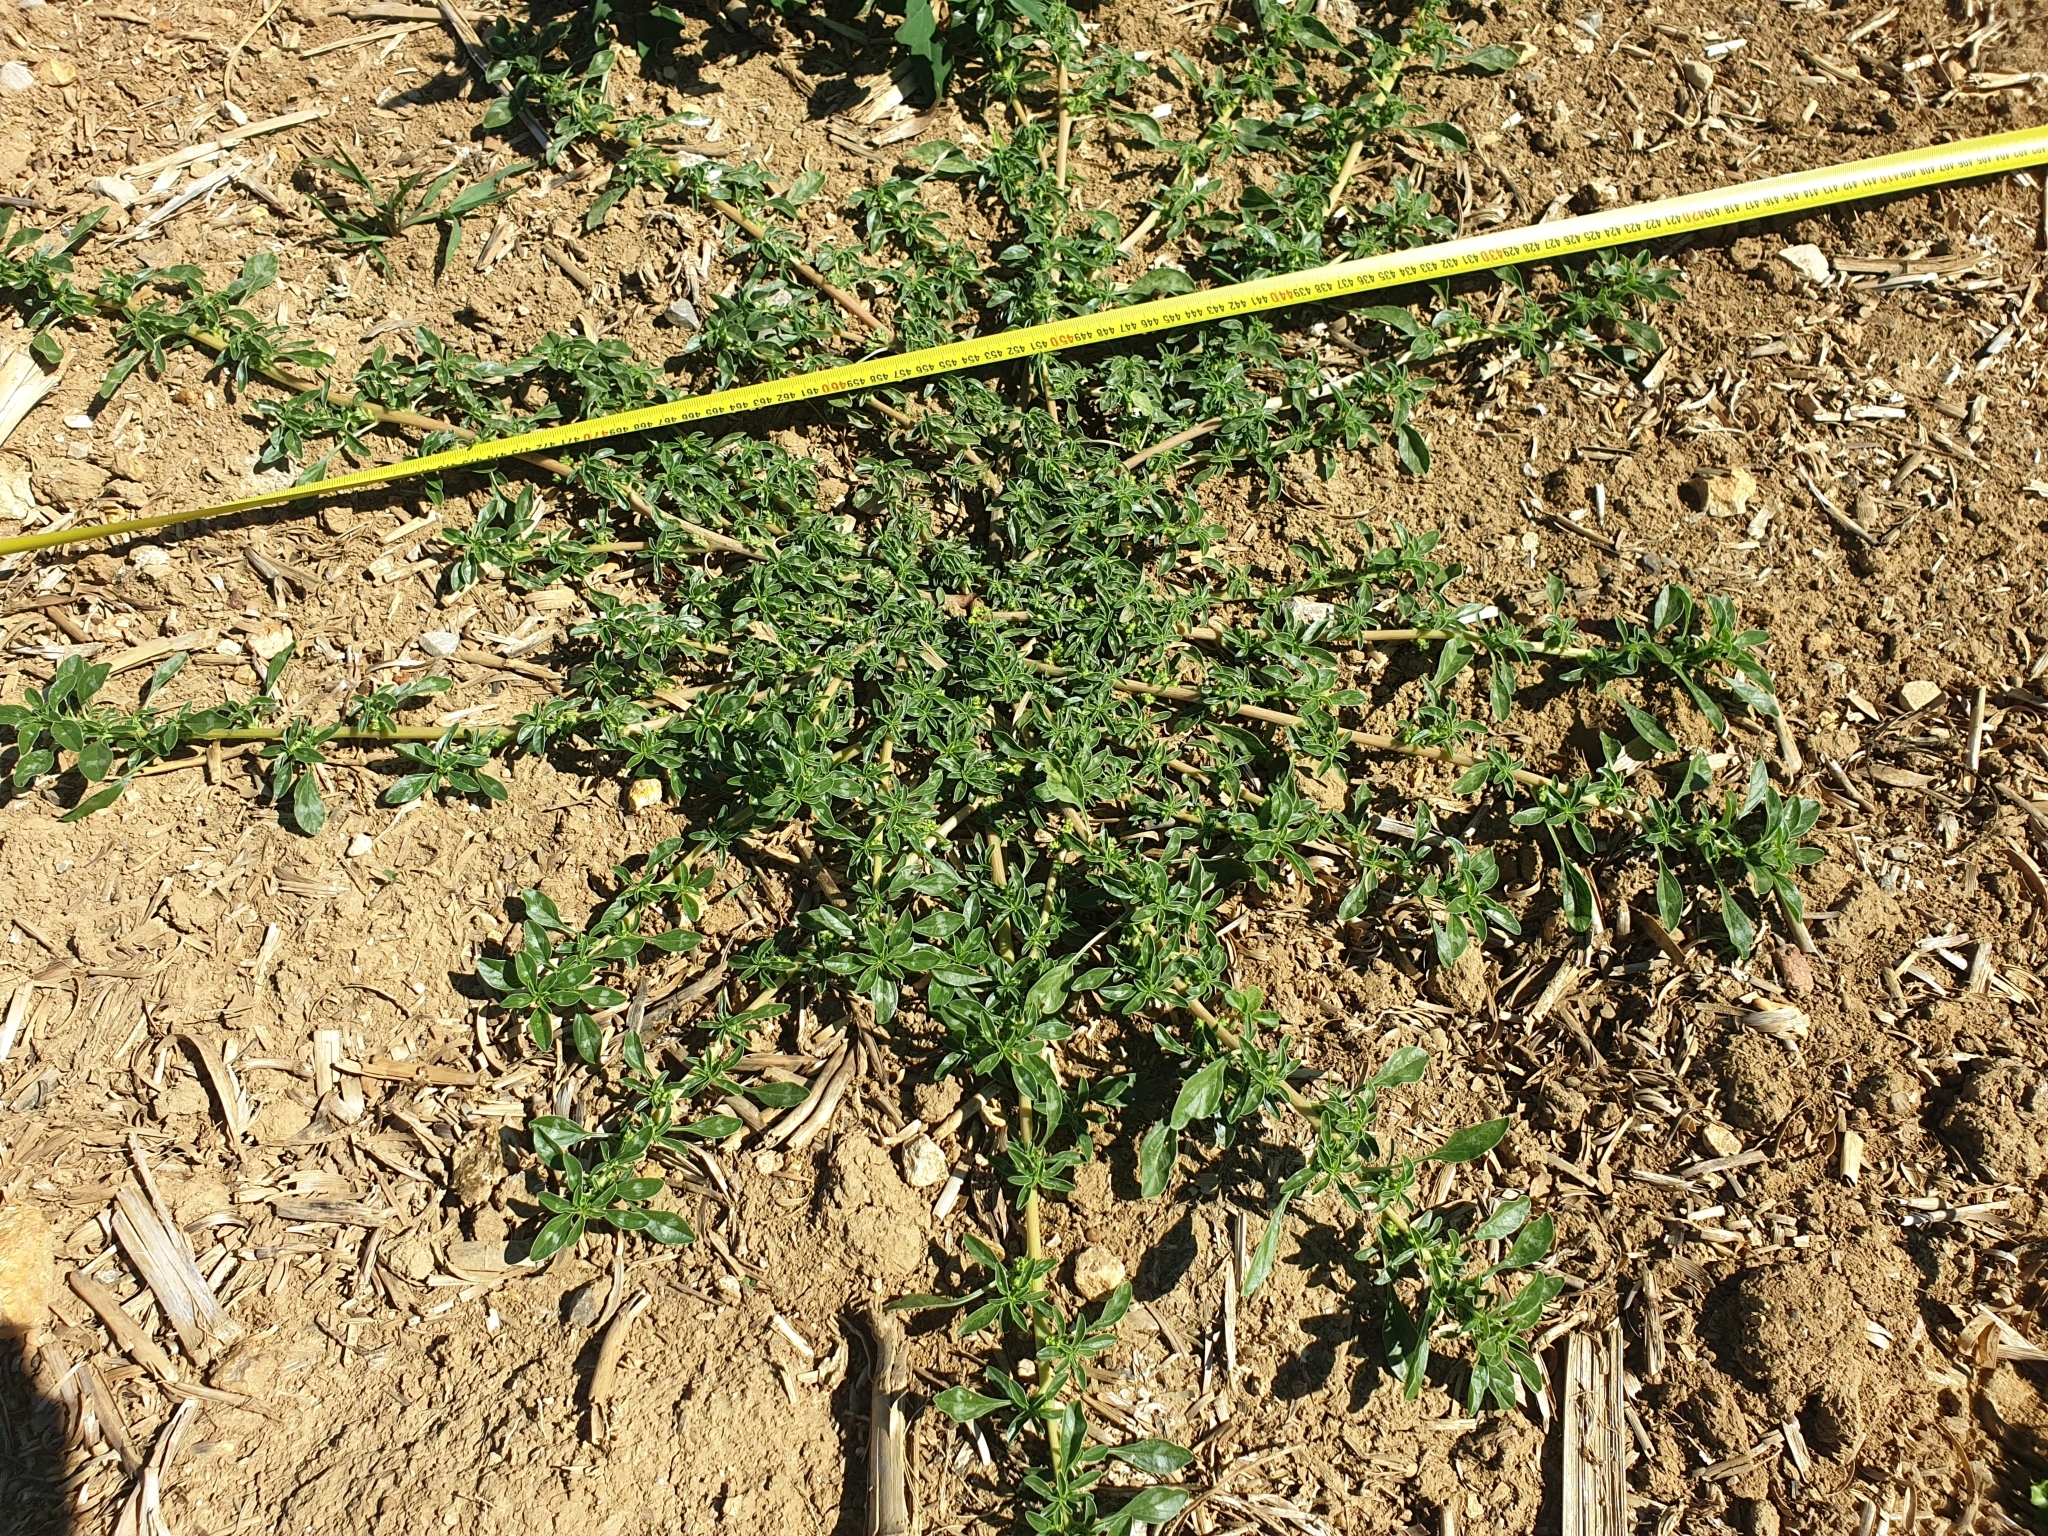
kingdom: Plantae
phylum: Tracheophyta
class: Magnoliopsida
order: Caryophyllales
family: Amaranthaceae
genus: Amaranthus
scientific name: Amaranthus blitoides
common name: Prostrate pigweed
